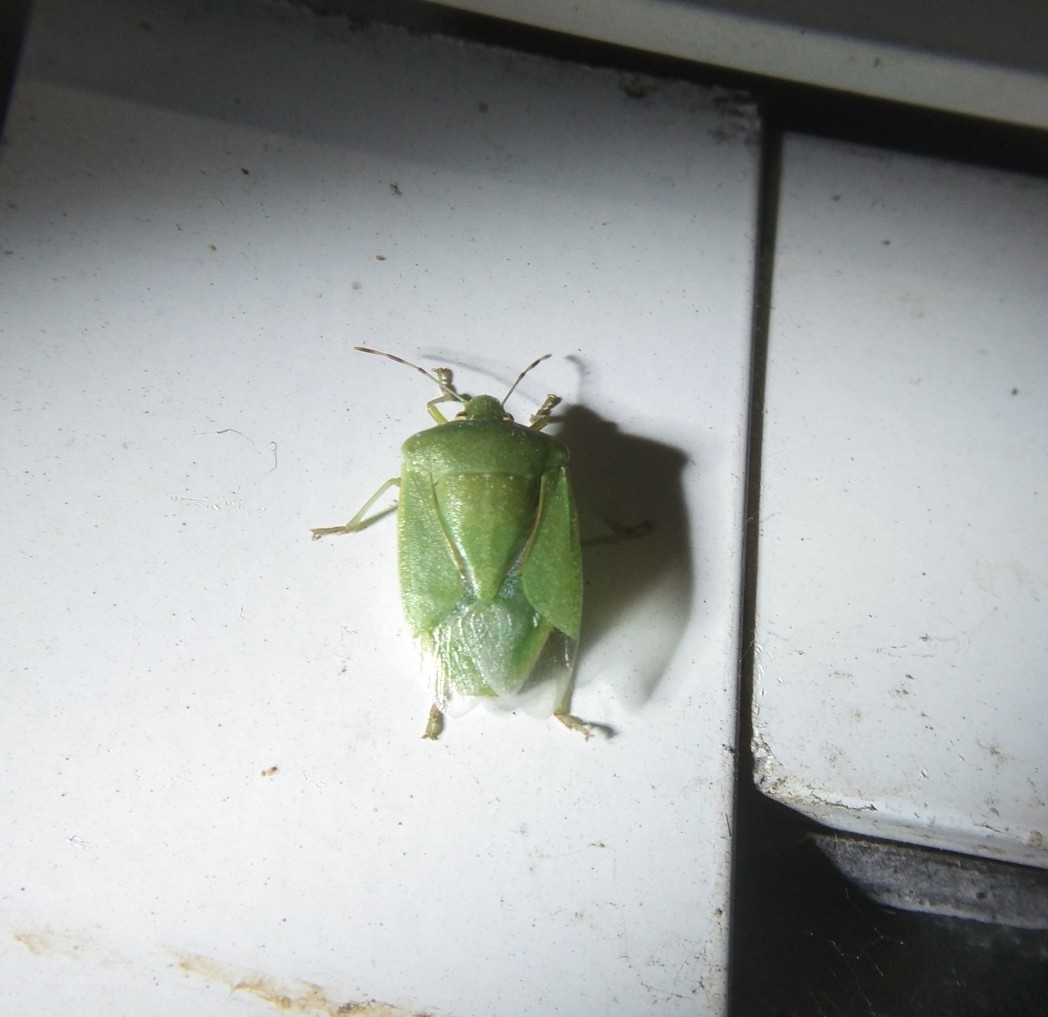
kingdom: Animalia
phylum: Arthropoda
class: Insecta
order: Hemiptera
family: Pentatomidae
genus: Nezara
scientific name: Nezara viridula
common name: Southern green stink bug
